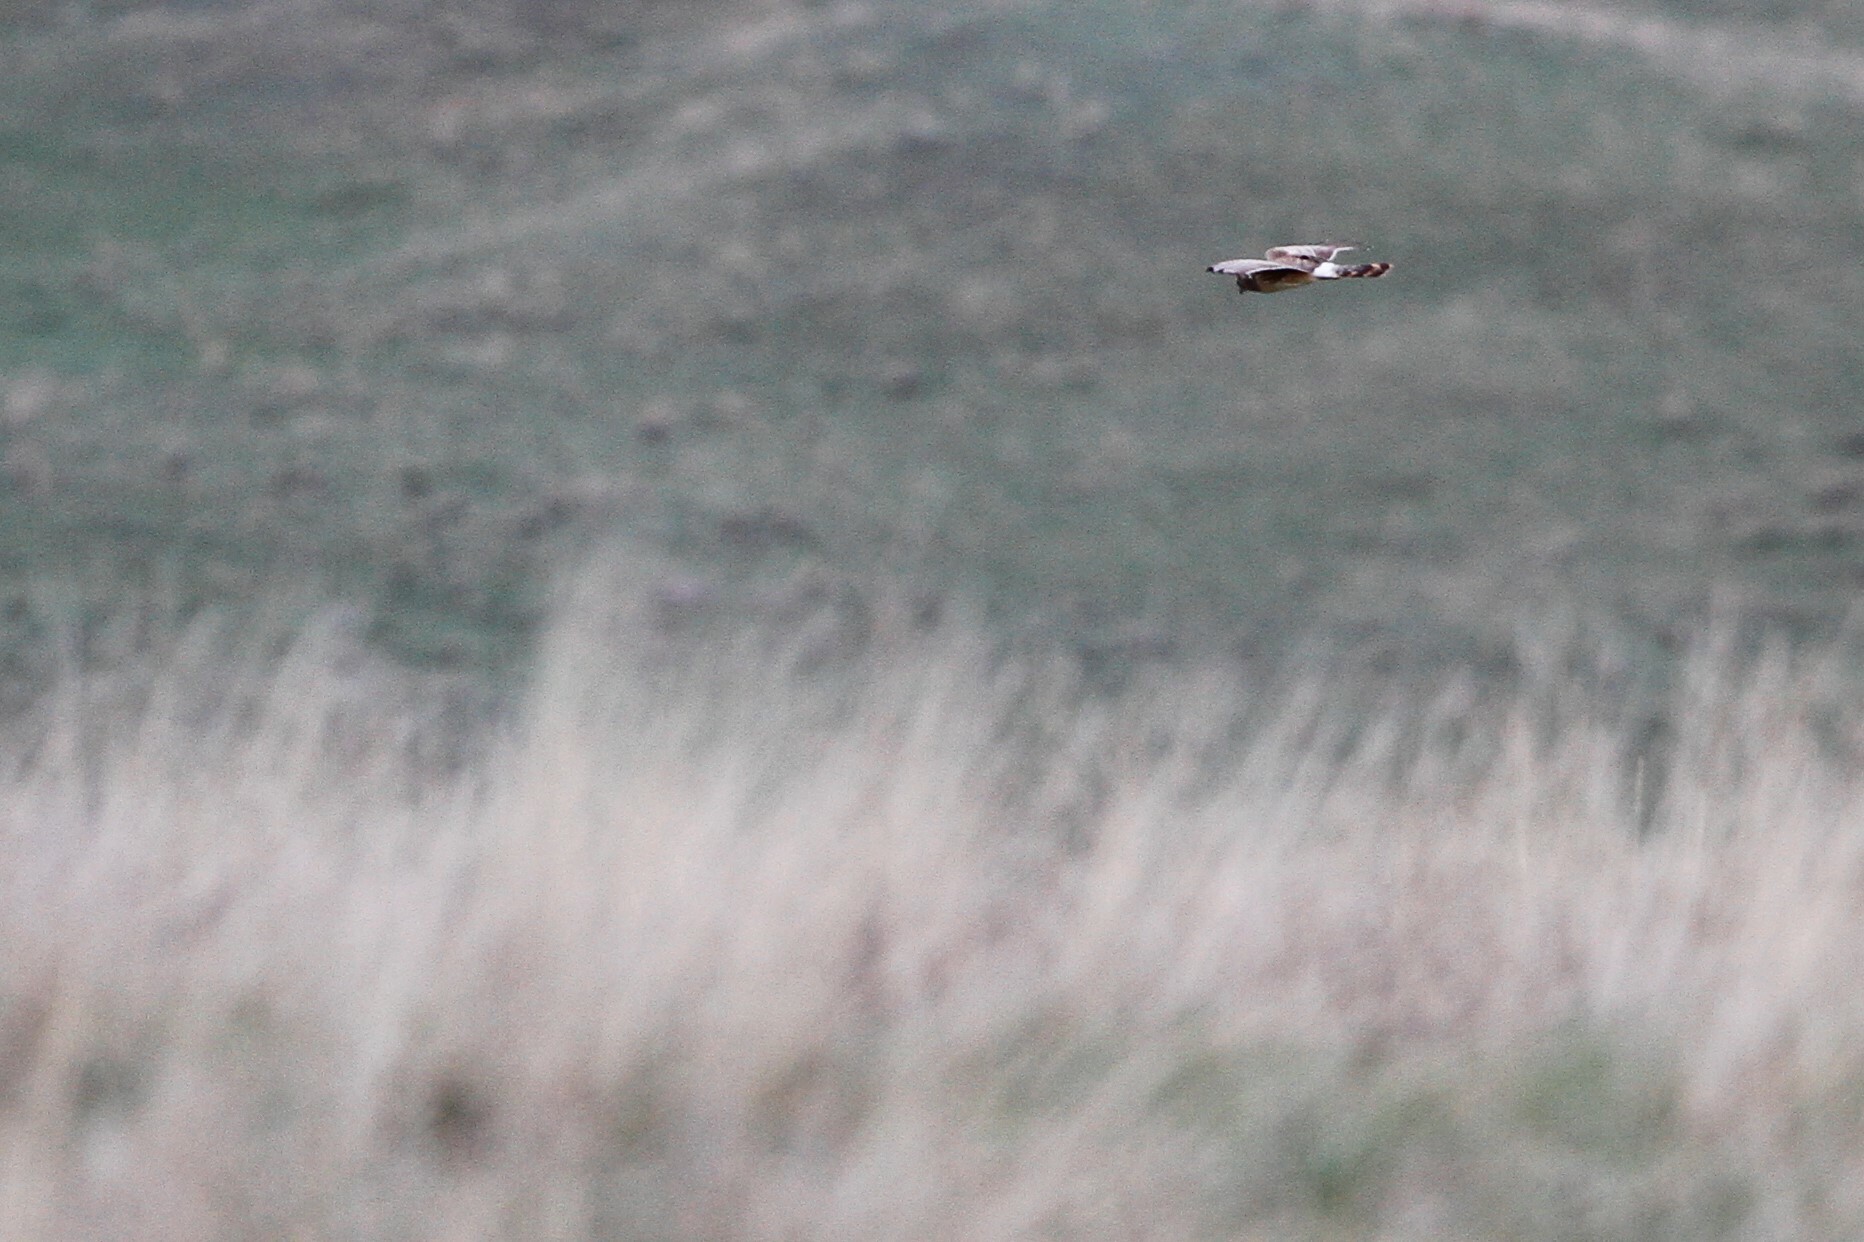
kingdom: Animalia
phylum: Chordata
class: Aves
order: Accipitriformes
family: Accipitridae
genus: Circus
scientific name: Circus cyaneus
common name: Hen harrier
